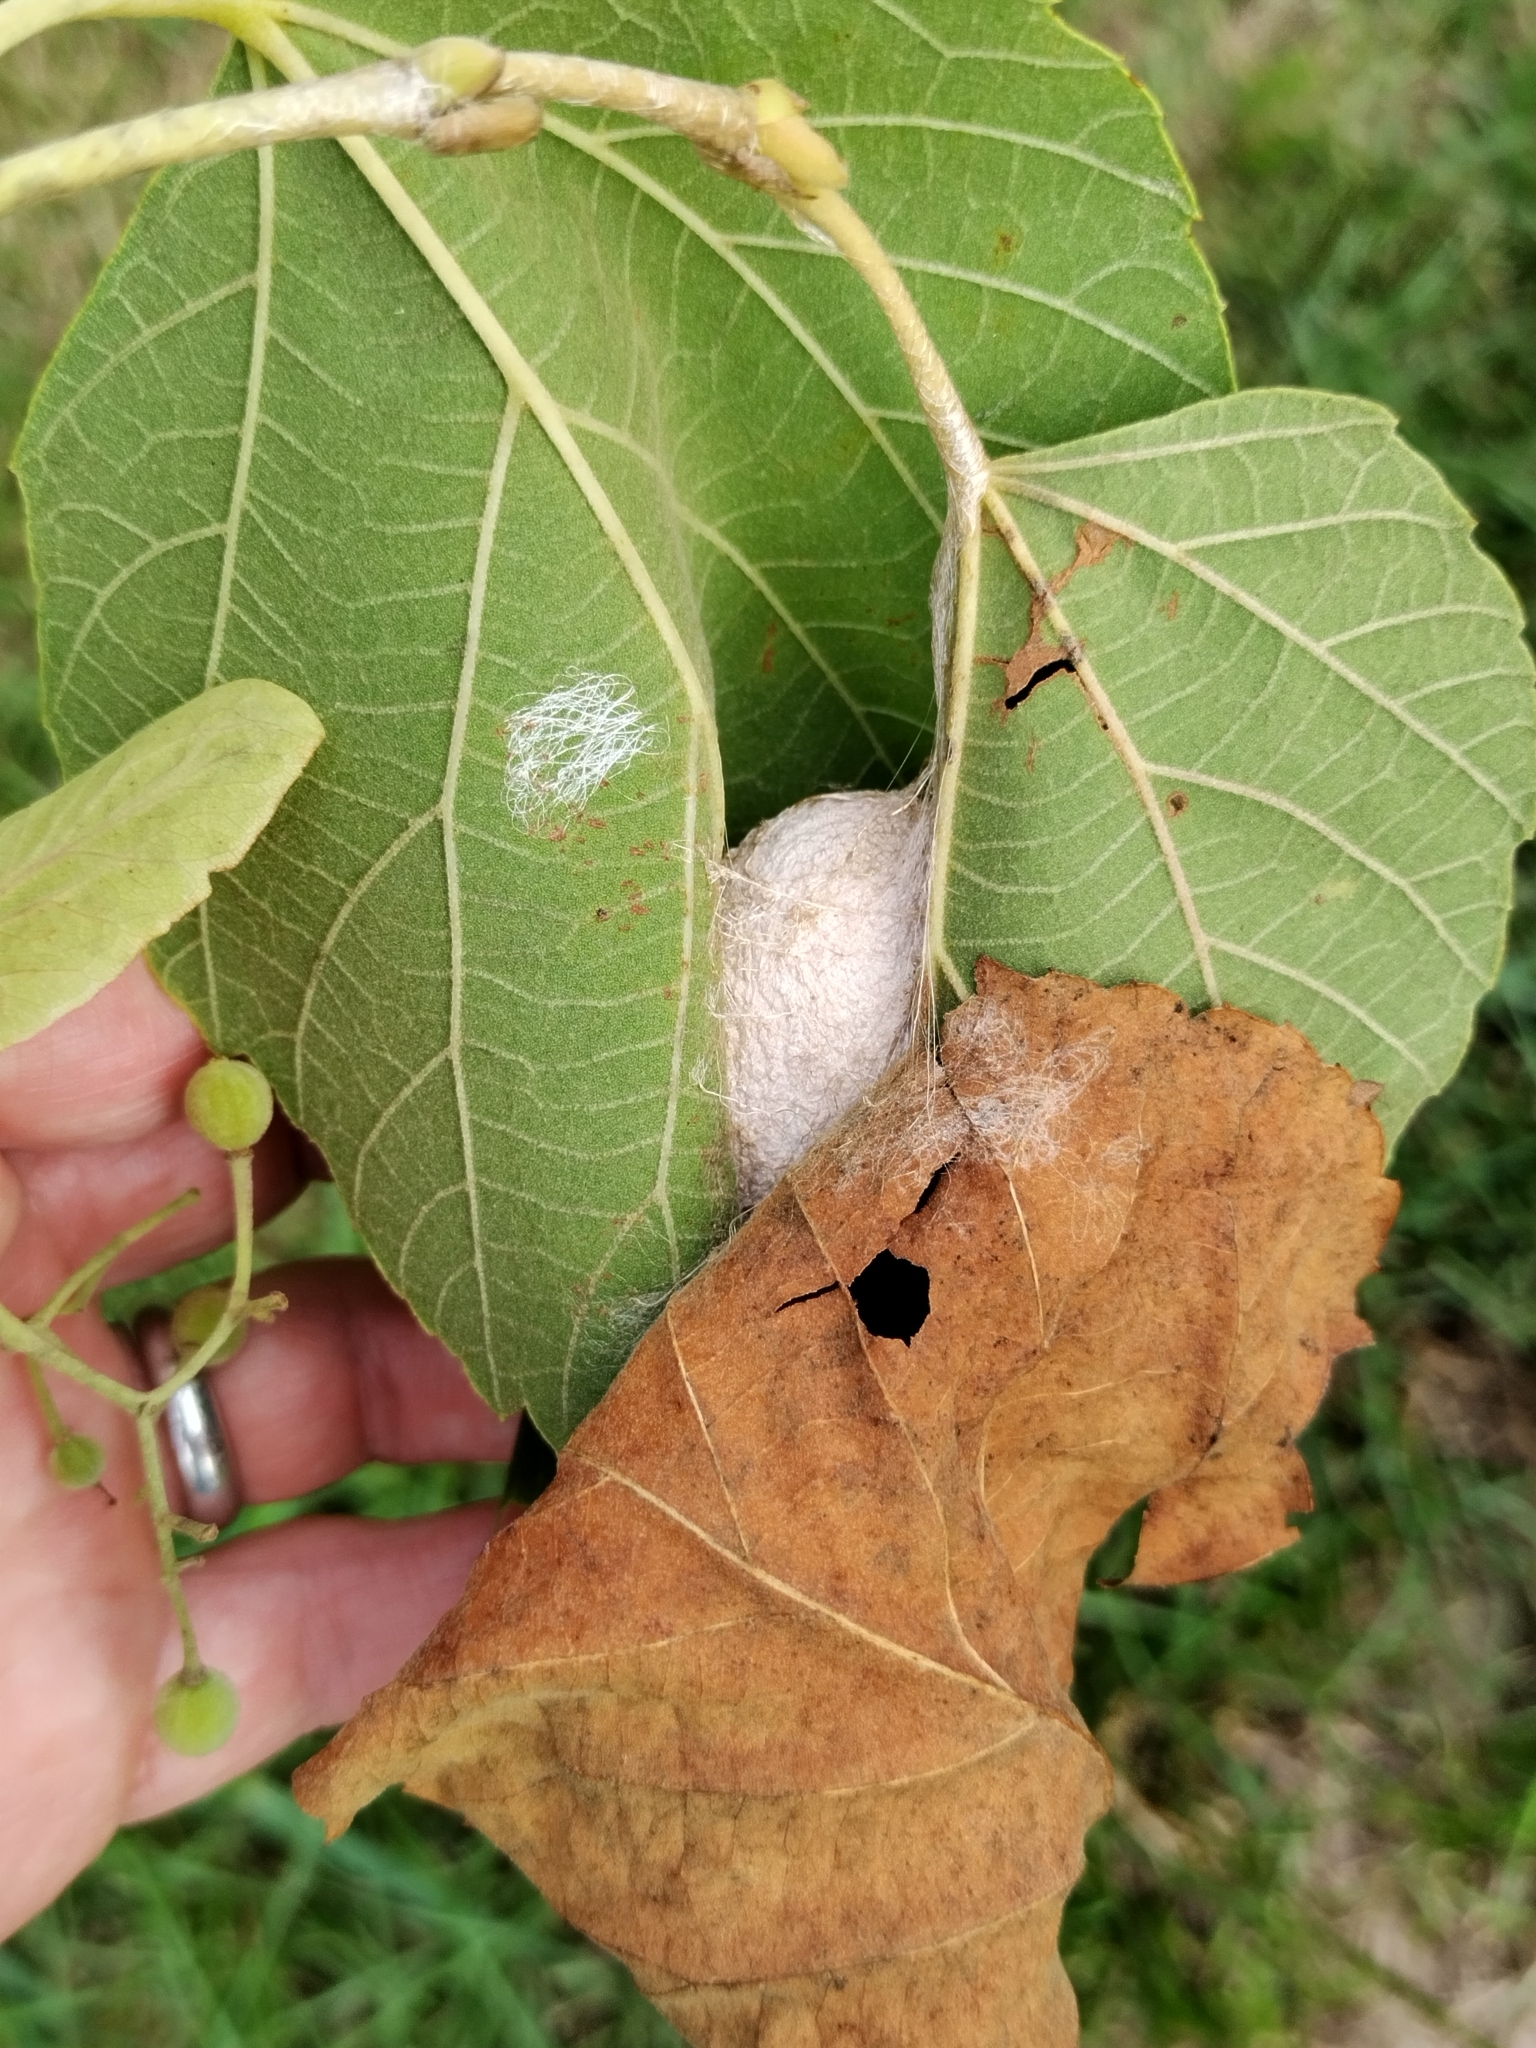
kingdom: Animalia
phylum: Arthropoda
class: Insecta
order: Lepidoptera
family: Saturniidae
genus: Antheraea
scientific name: Antheraea polyphemus
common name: Polyphemus moth
